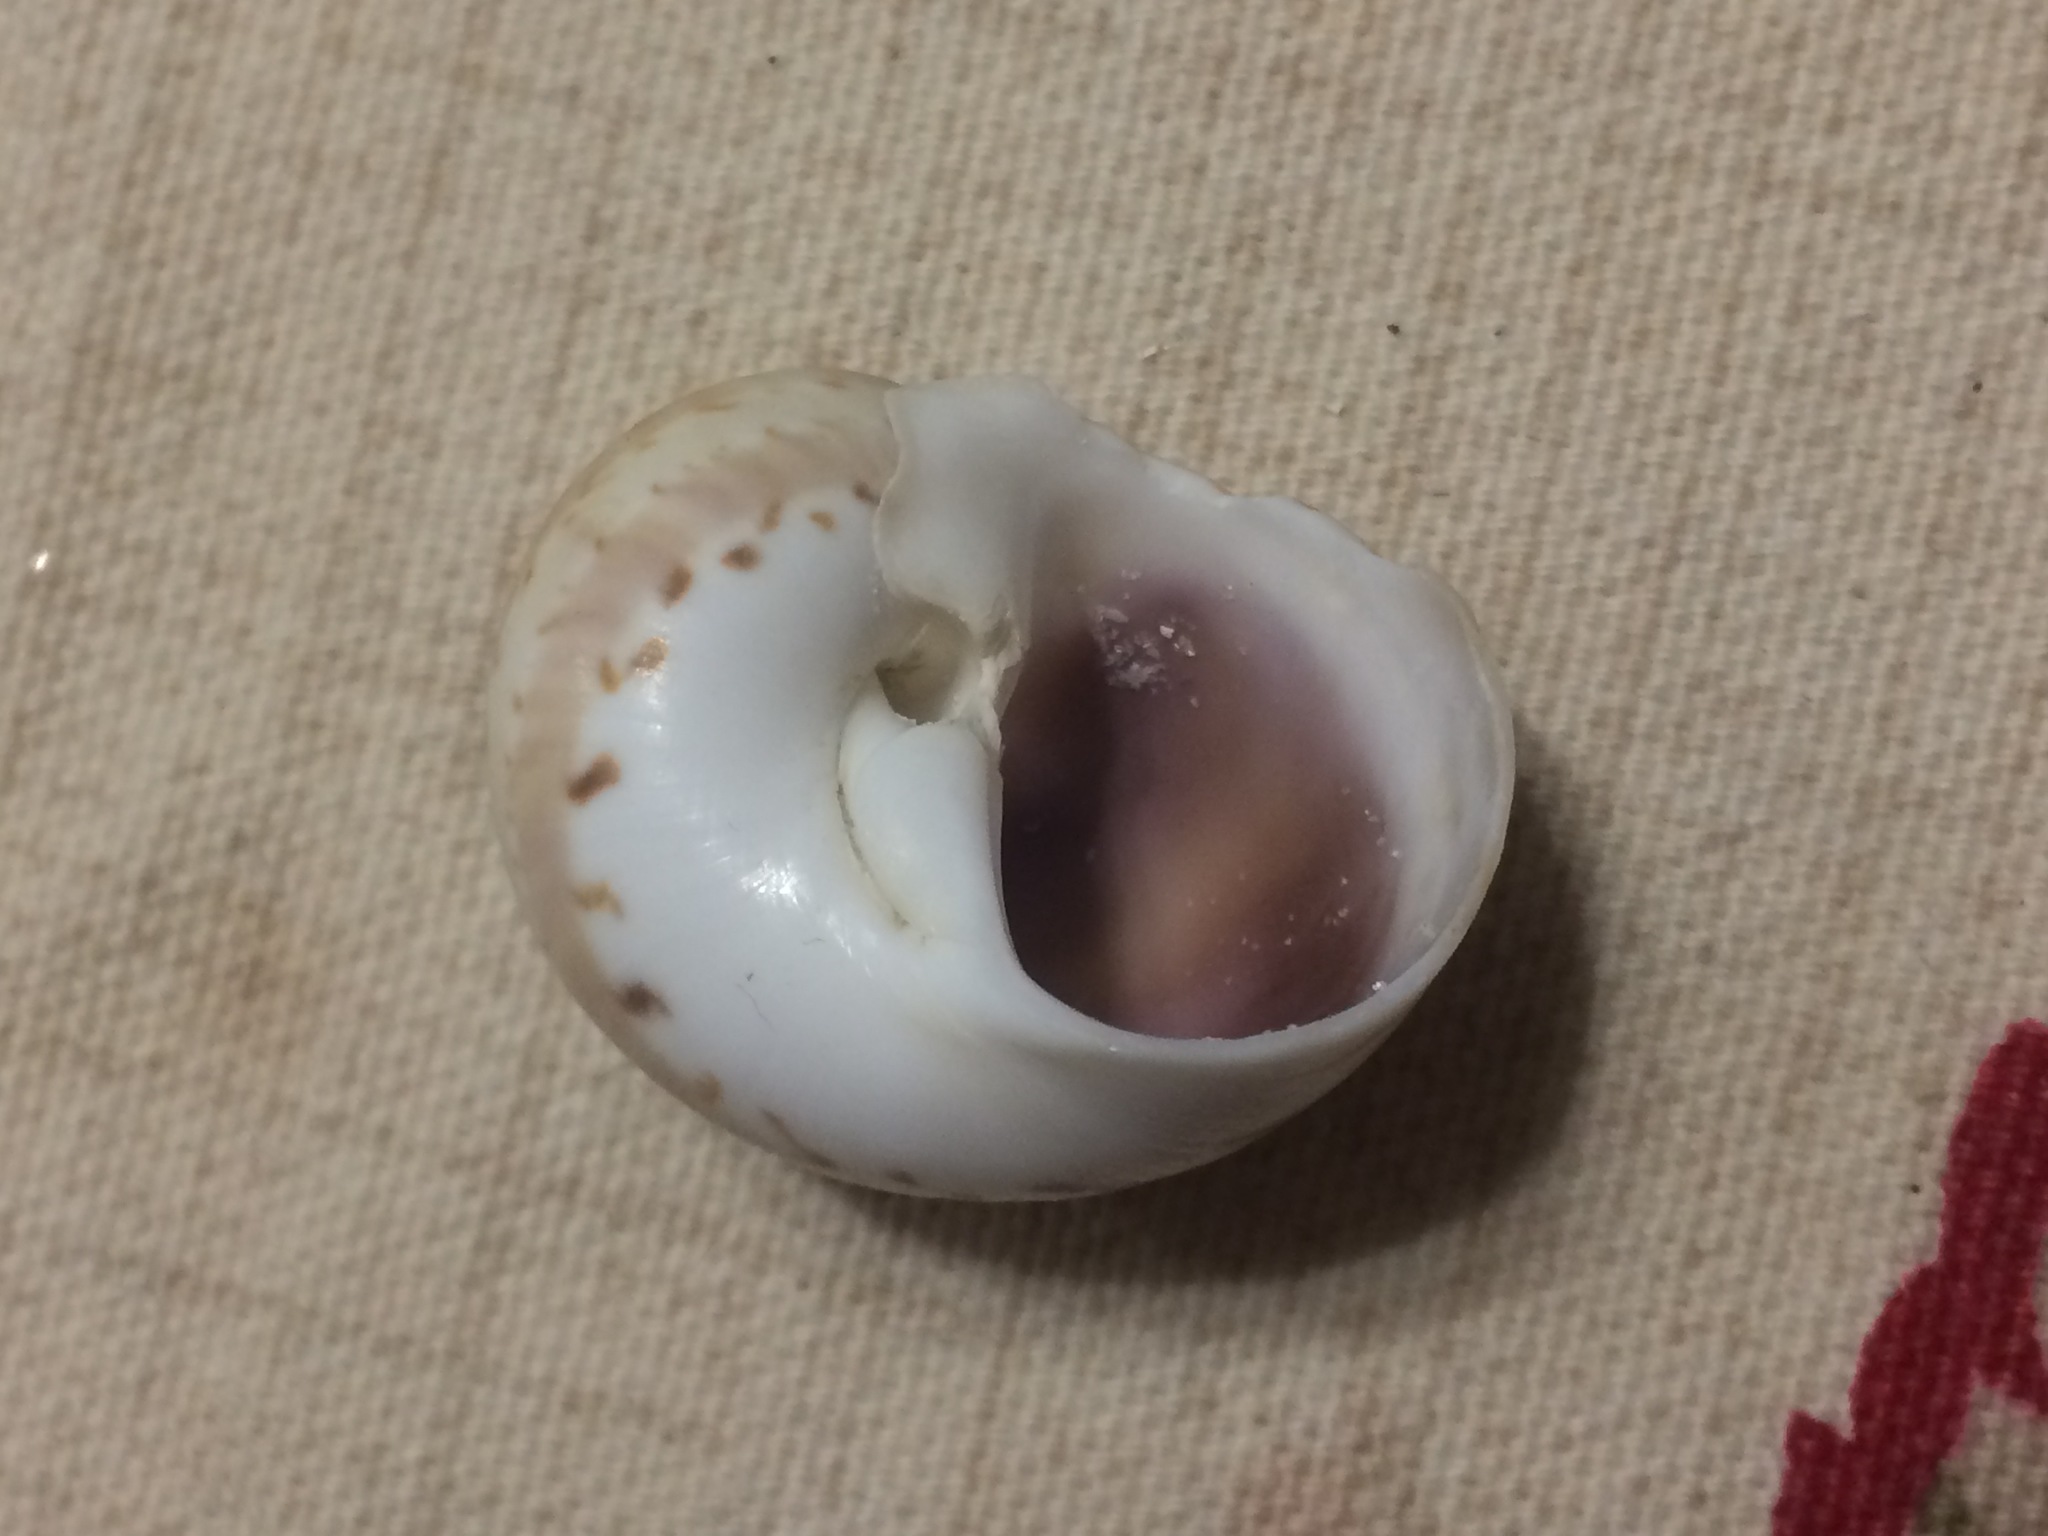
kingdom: Animalia
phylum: Mollusca
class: Gastropoda
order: Littorinimorpha
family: Naticidae
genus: Naticarius
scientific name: Naticarius canrena
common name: Colorful moonsnail
